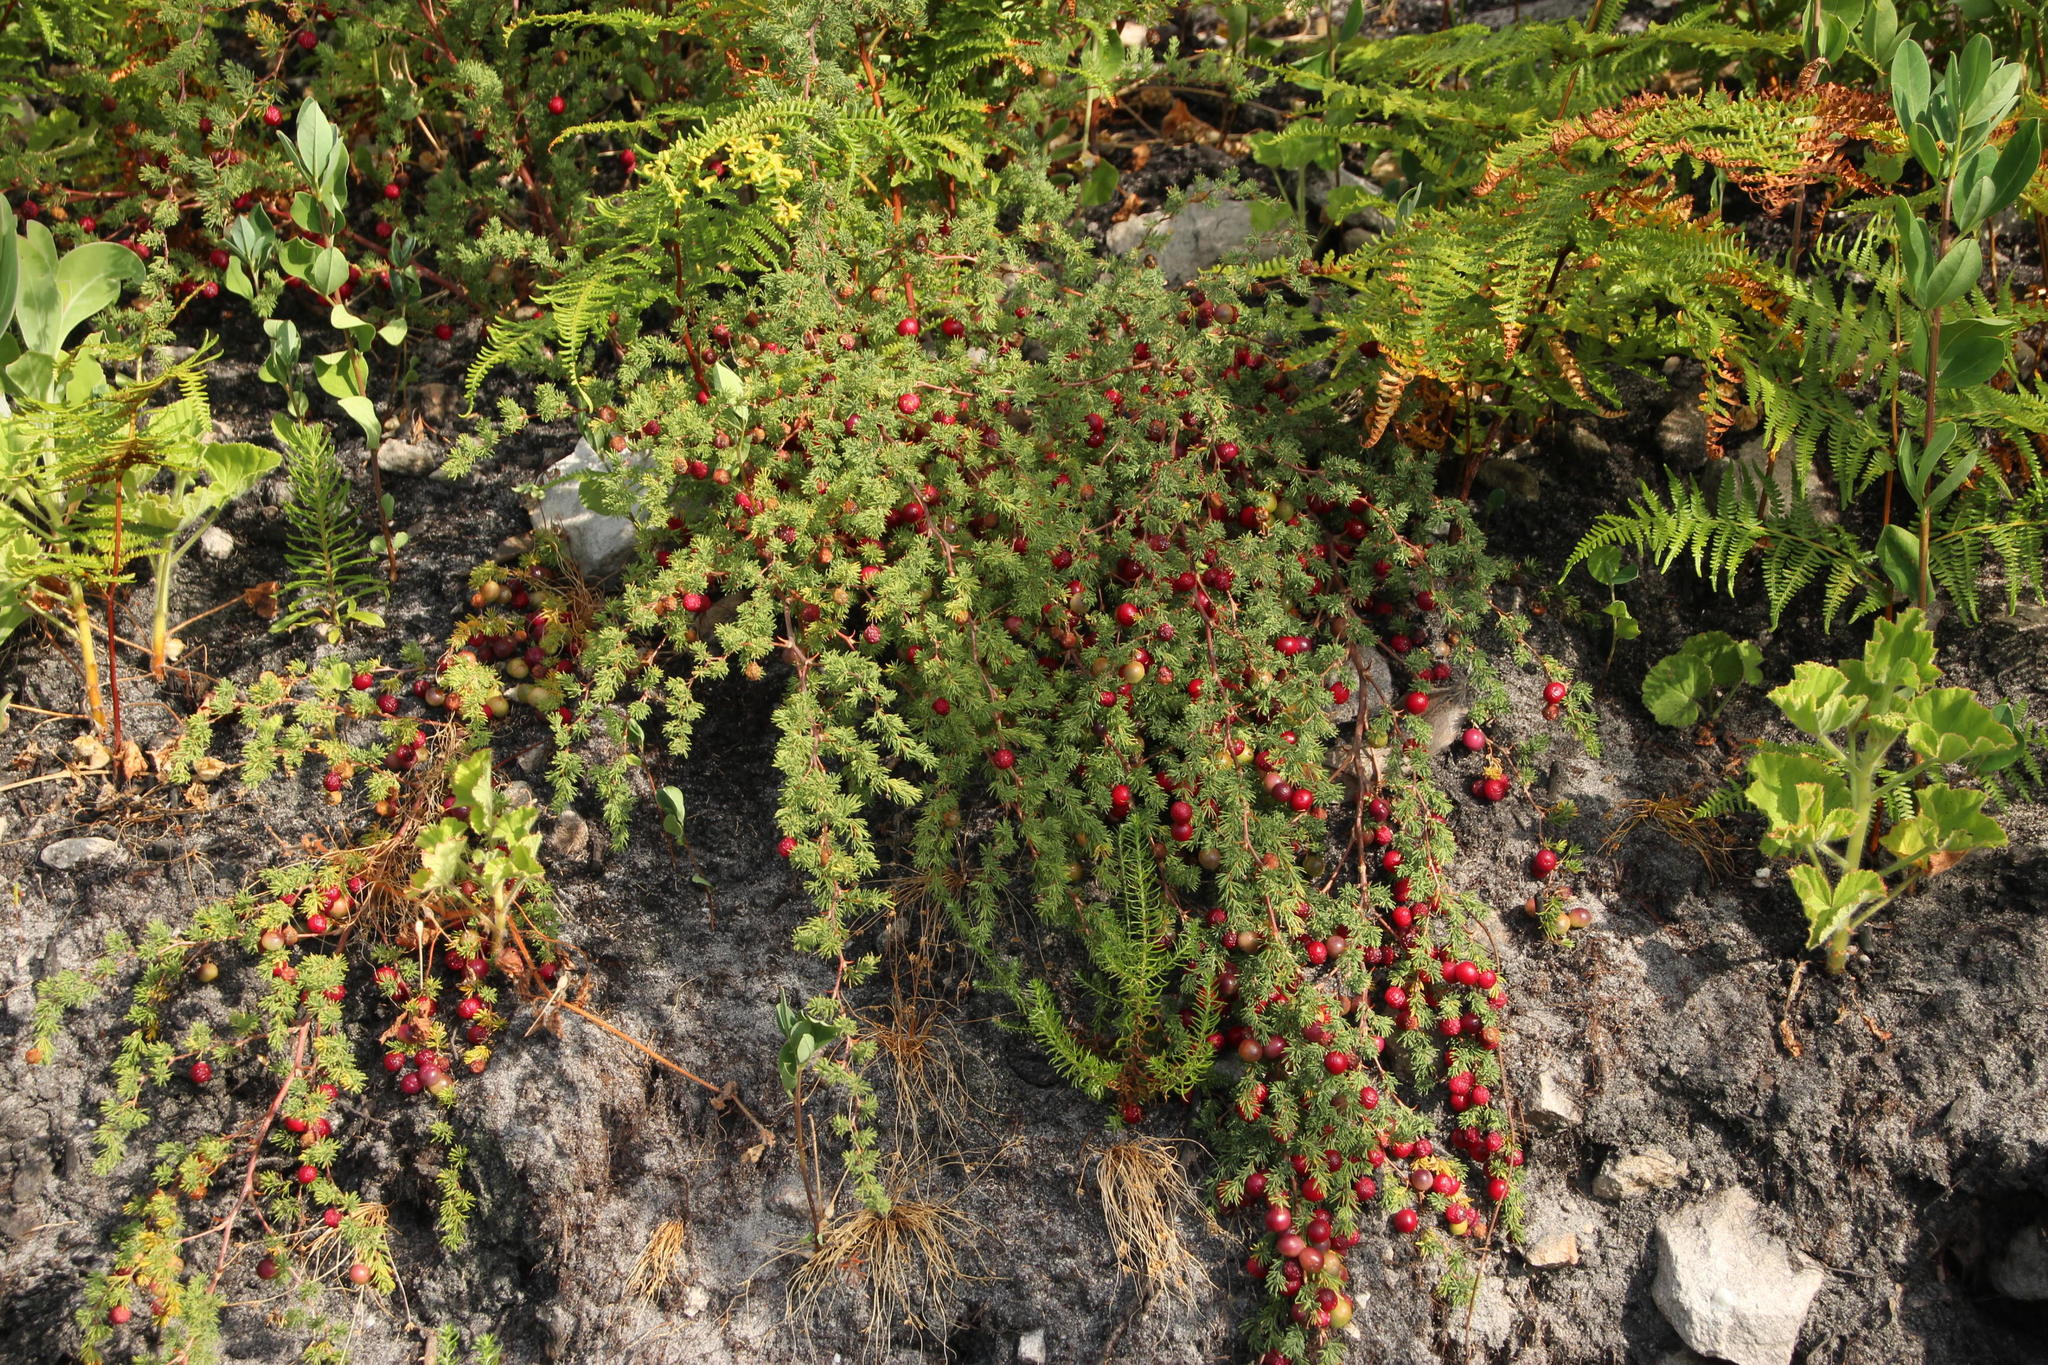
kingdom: Plantae
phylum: Tracheophyta
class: Liliopsida
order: Asparagales
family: Asparagaceae
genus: Asparagus
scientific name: Asparagus rubicundus
